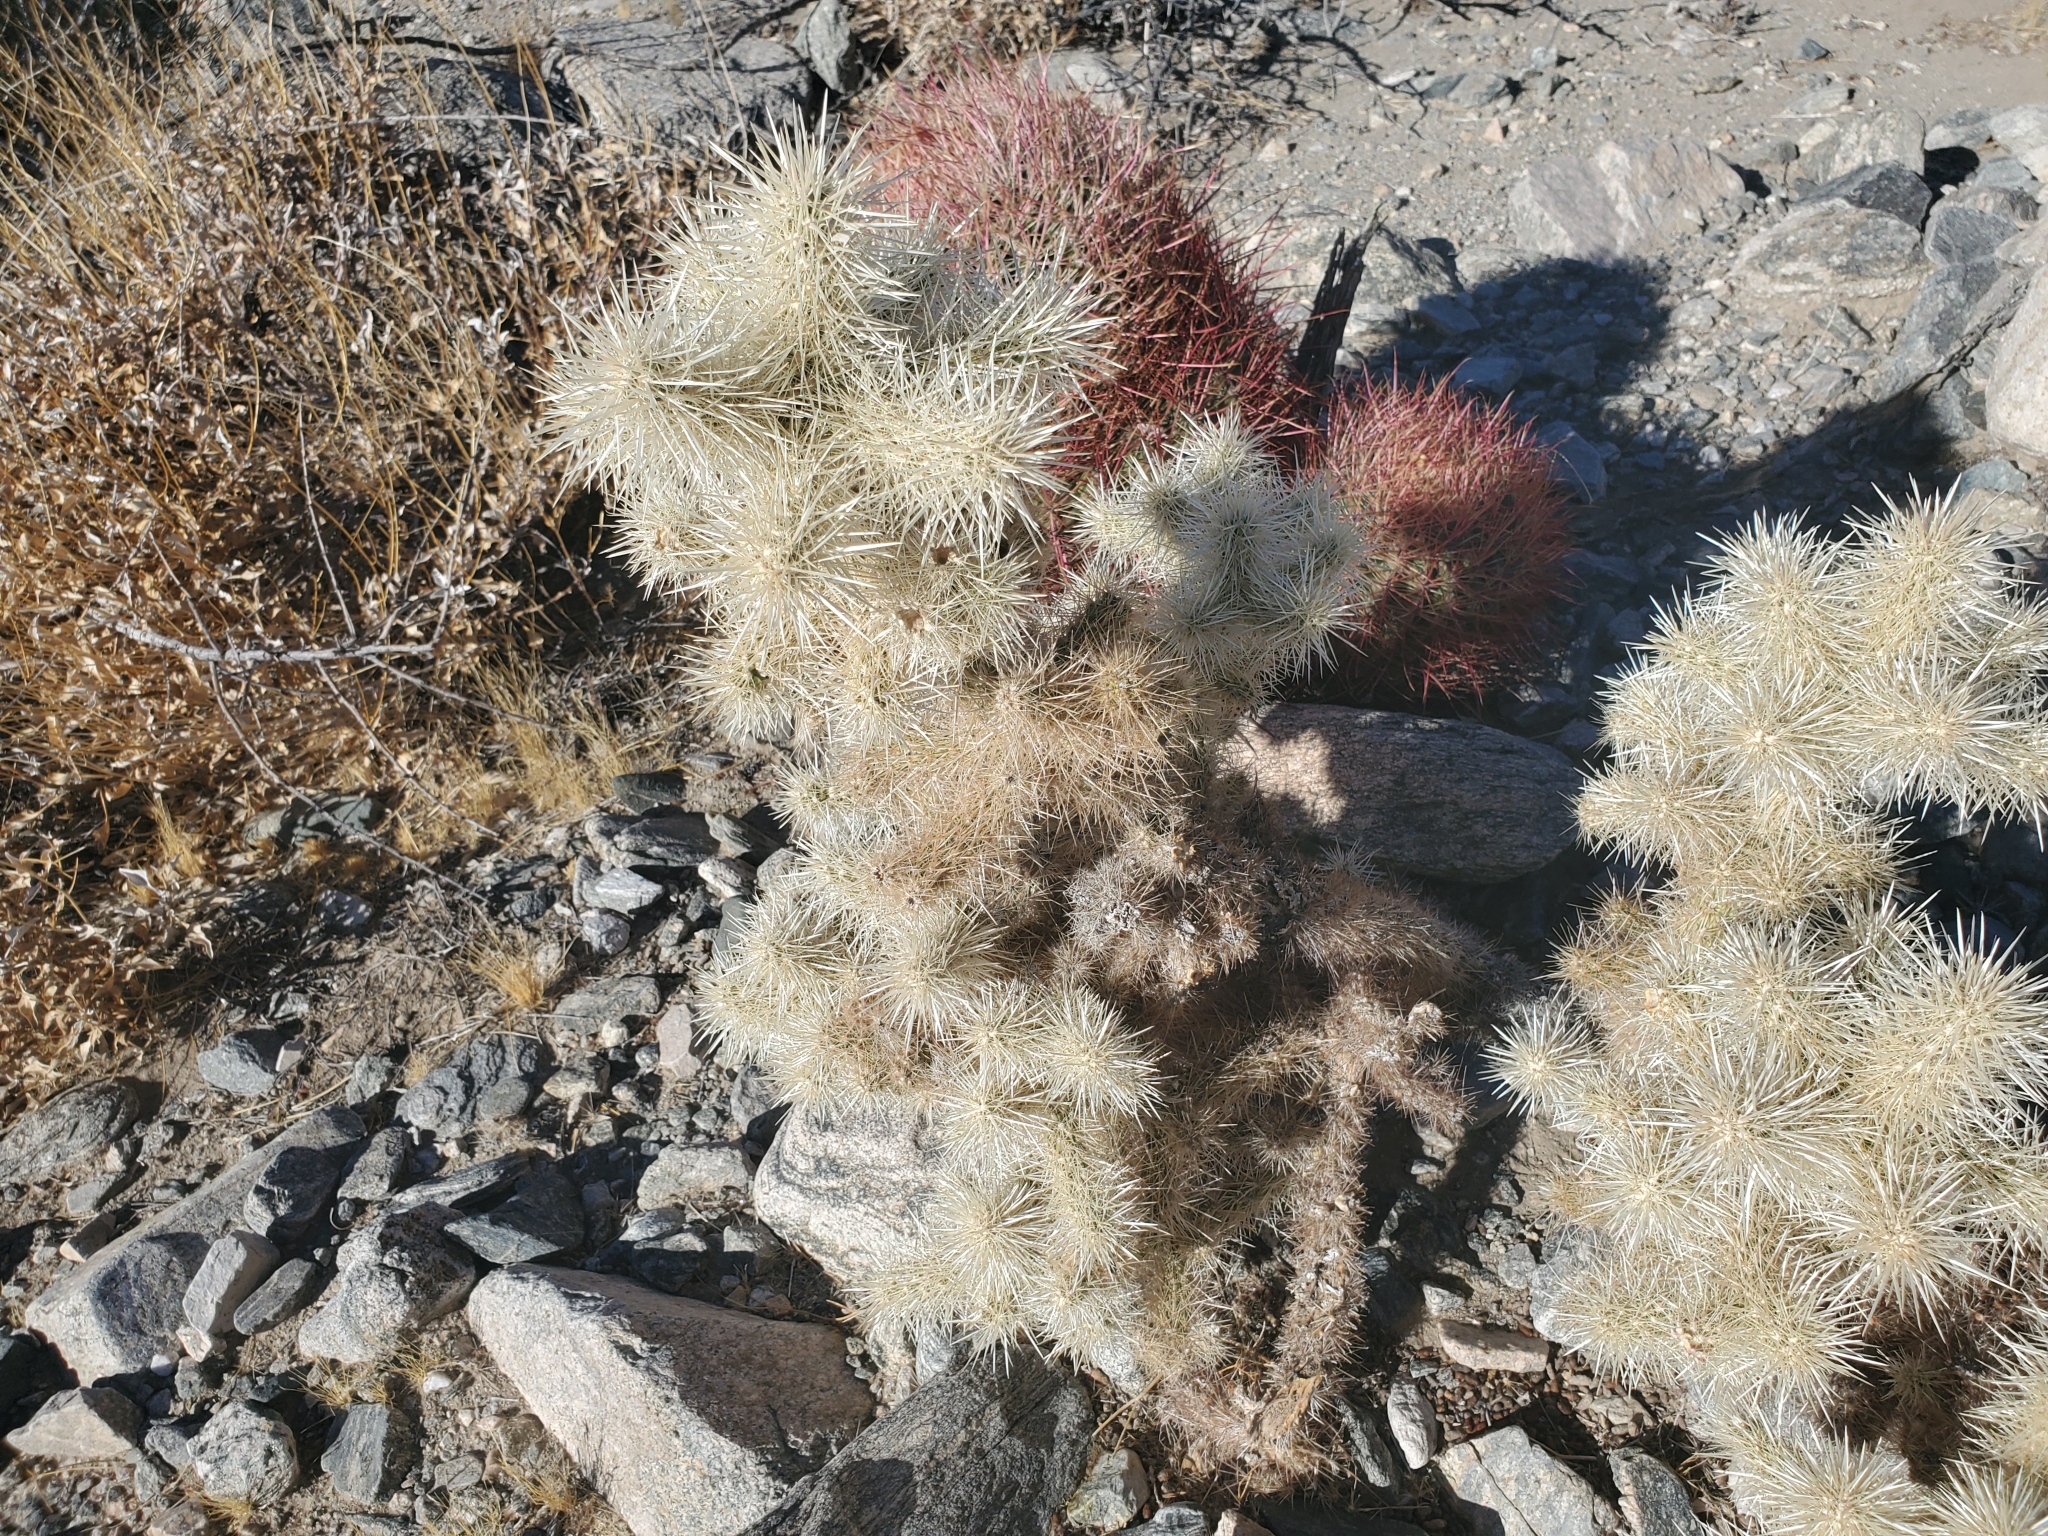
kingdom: Plantae
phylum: Tracheophyta
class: Magnoliopsida
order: Caryophyllales
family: Cactaceae
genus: Cylindropuntia
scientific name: Cylindropuntia chuckwallensis
